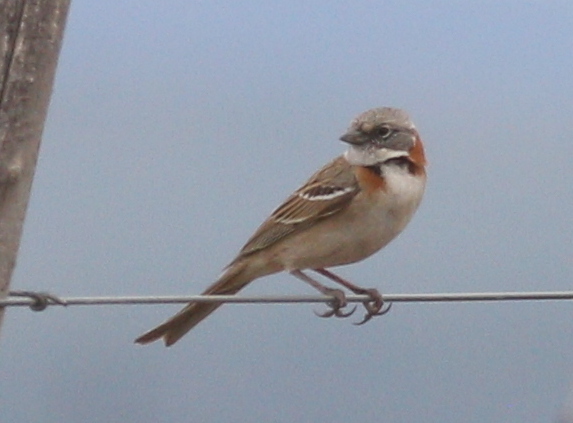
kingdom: Animalia
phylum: Chordata
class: Aves
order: Passeriformes
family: Passerellidae
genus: Zonotrichia
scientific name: Zonotrichia capensis
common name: Rufous-collared sparrow
